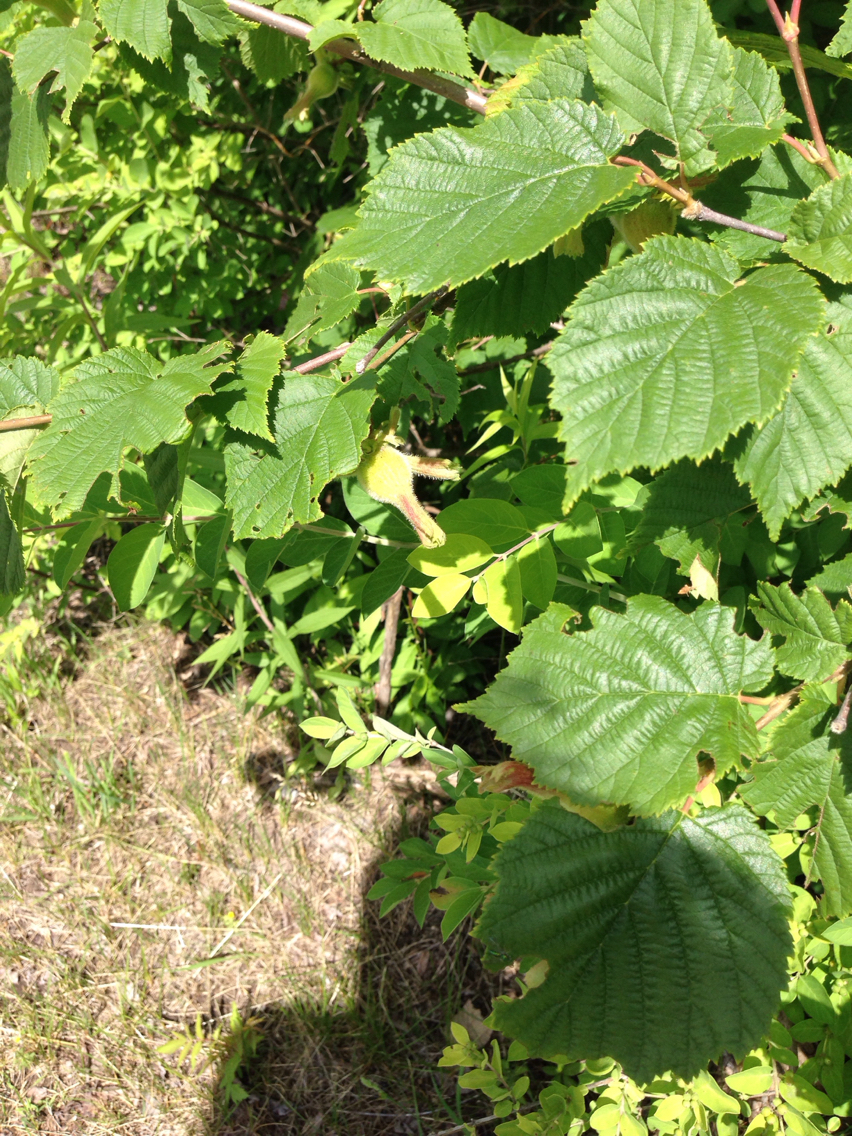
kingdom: Plantae
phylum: Tracheophyta
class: Magnoliopsida
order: Fagales
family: Betulaceae
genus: Corylus
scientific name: Corylus cornuta
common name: Beaked hazel
